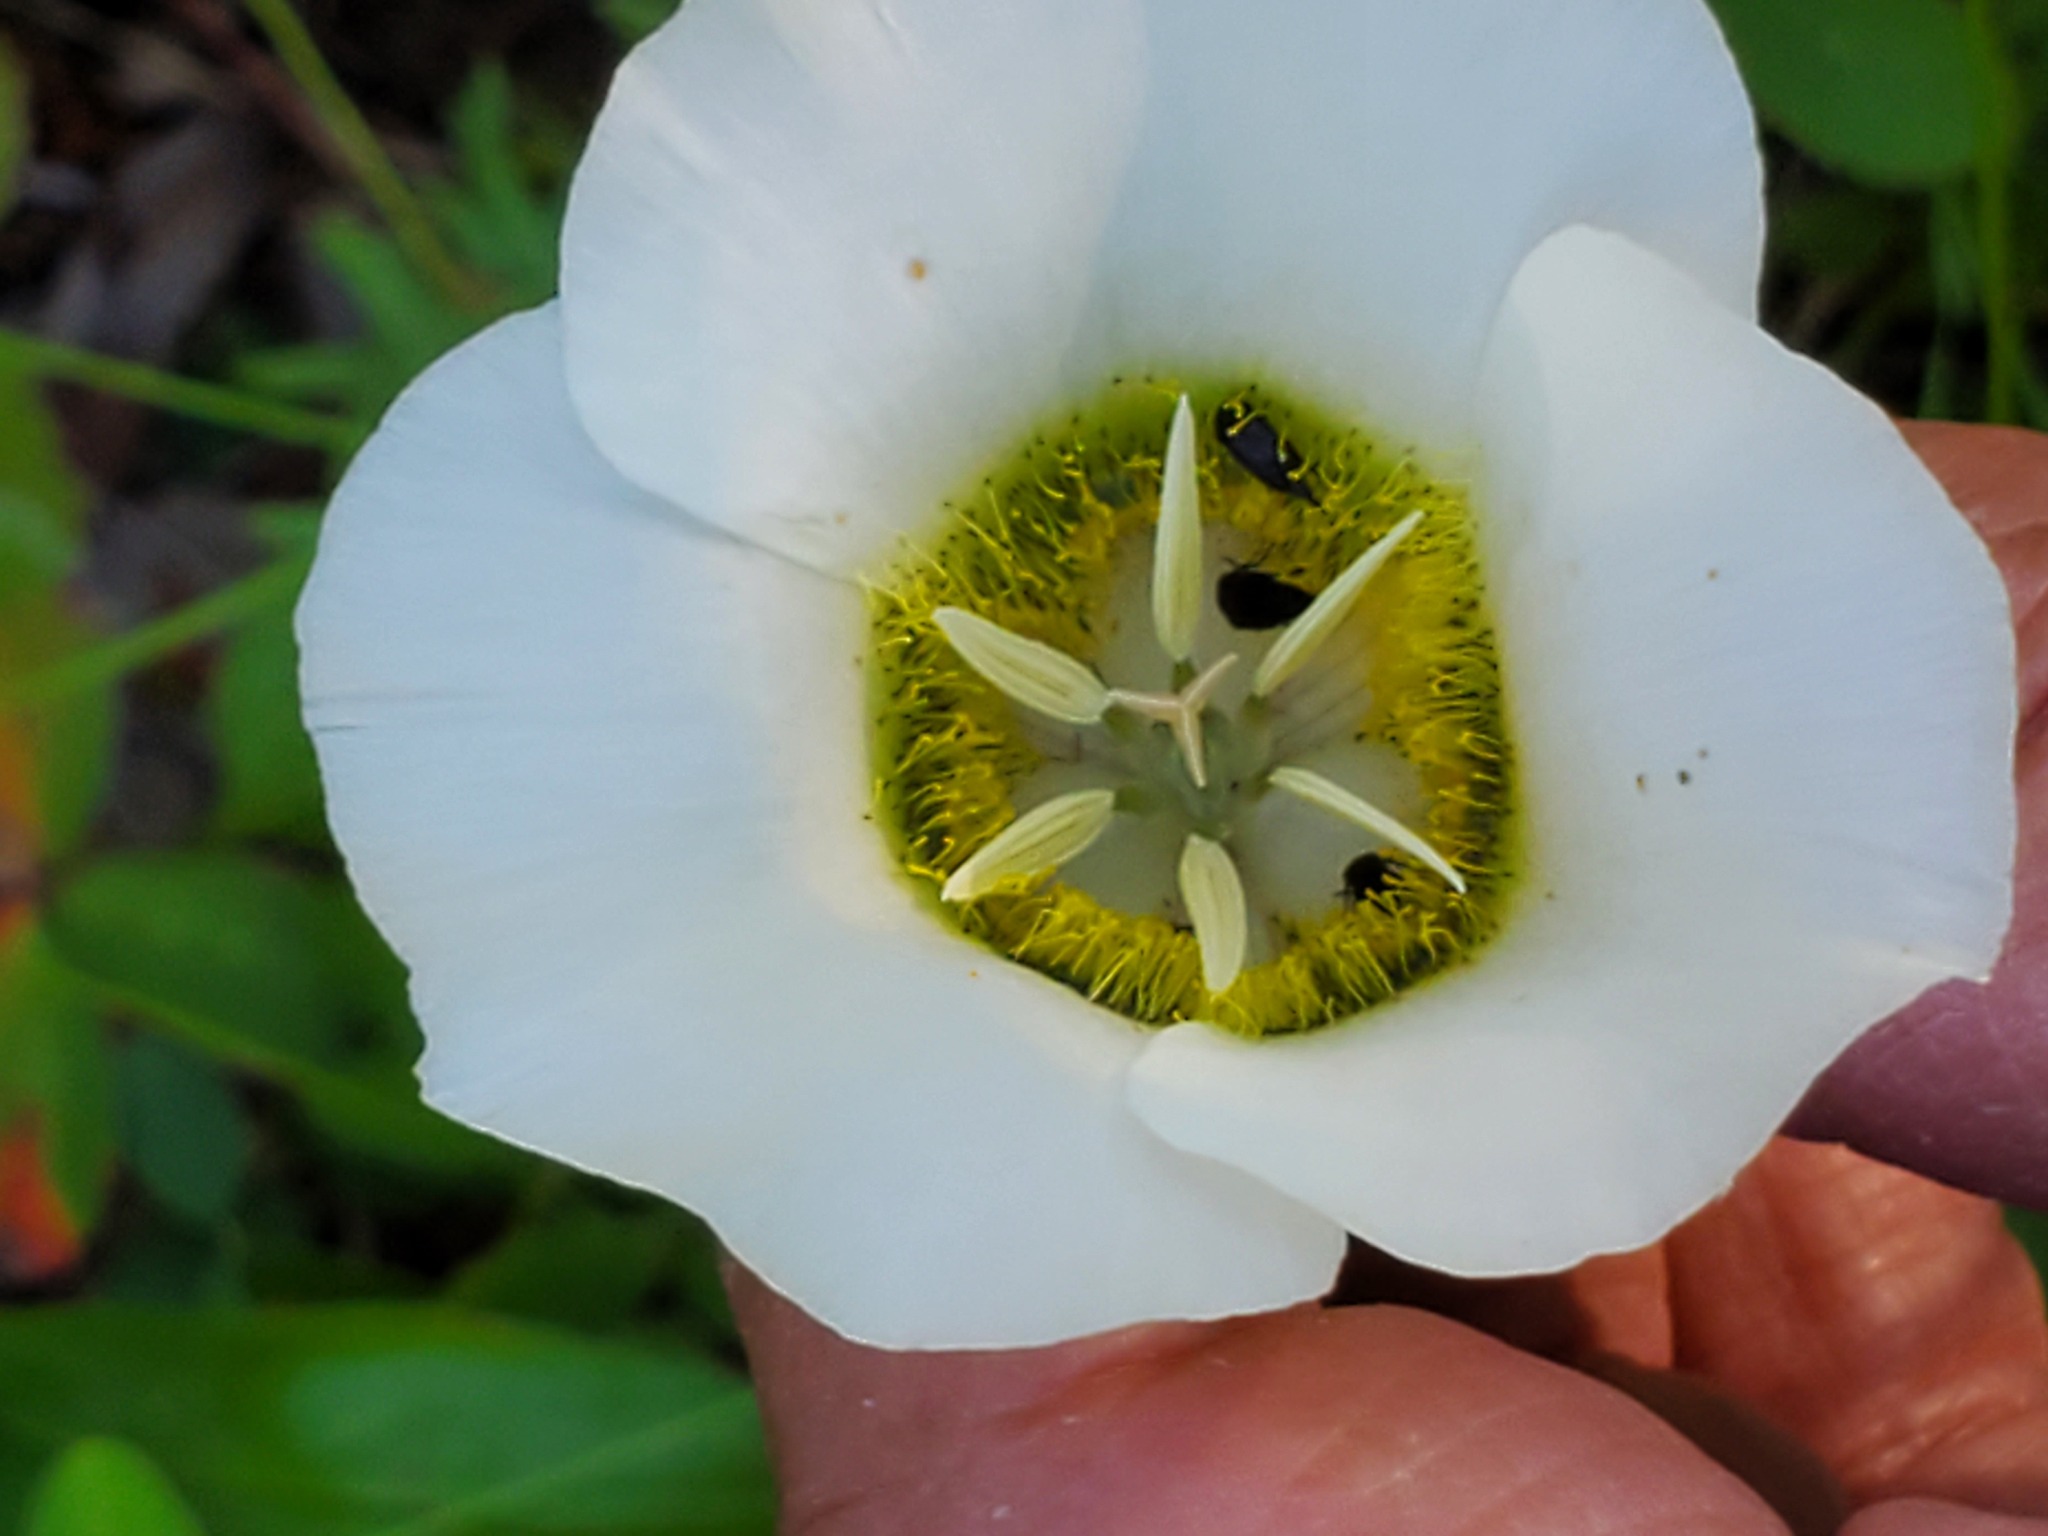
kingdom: Plantae
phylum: Tracheophyta
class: Liliopsida
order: Liliales
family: Liliaceae
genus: Calochortus
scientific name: Calochortus gunnisonii
